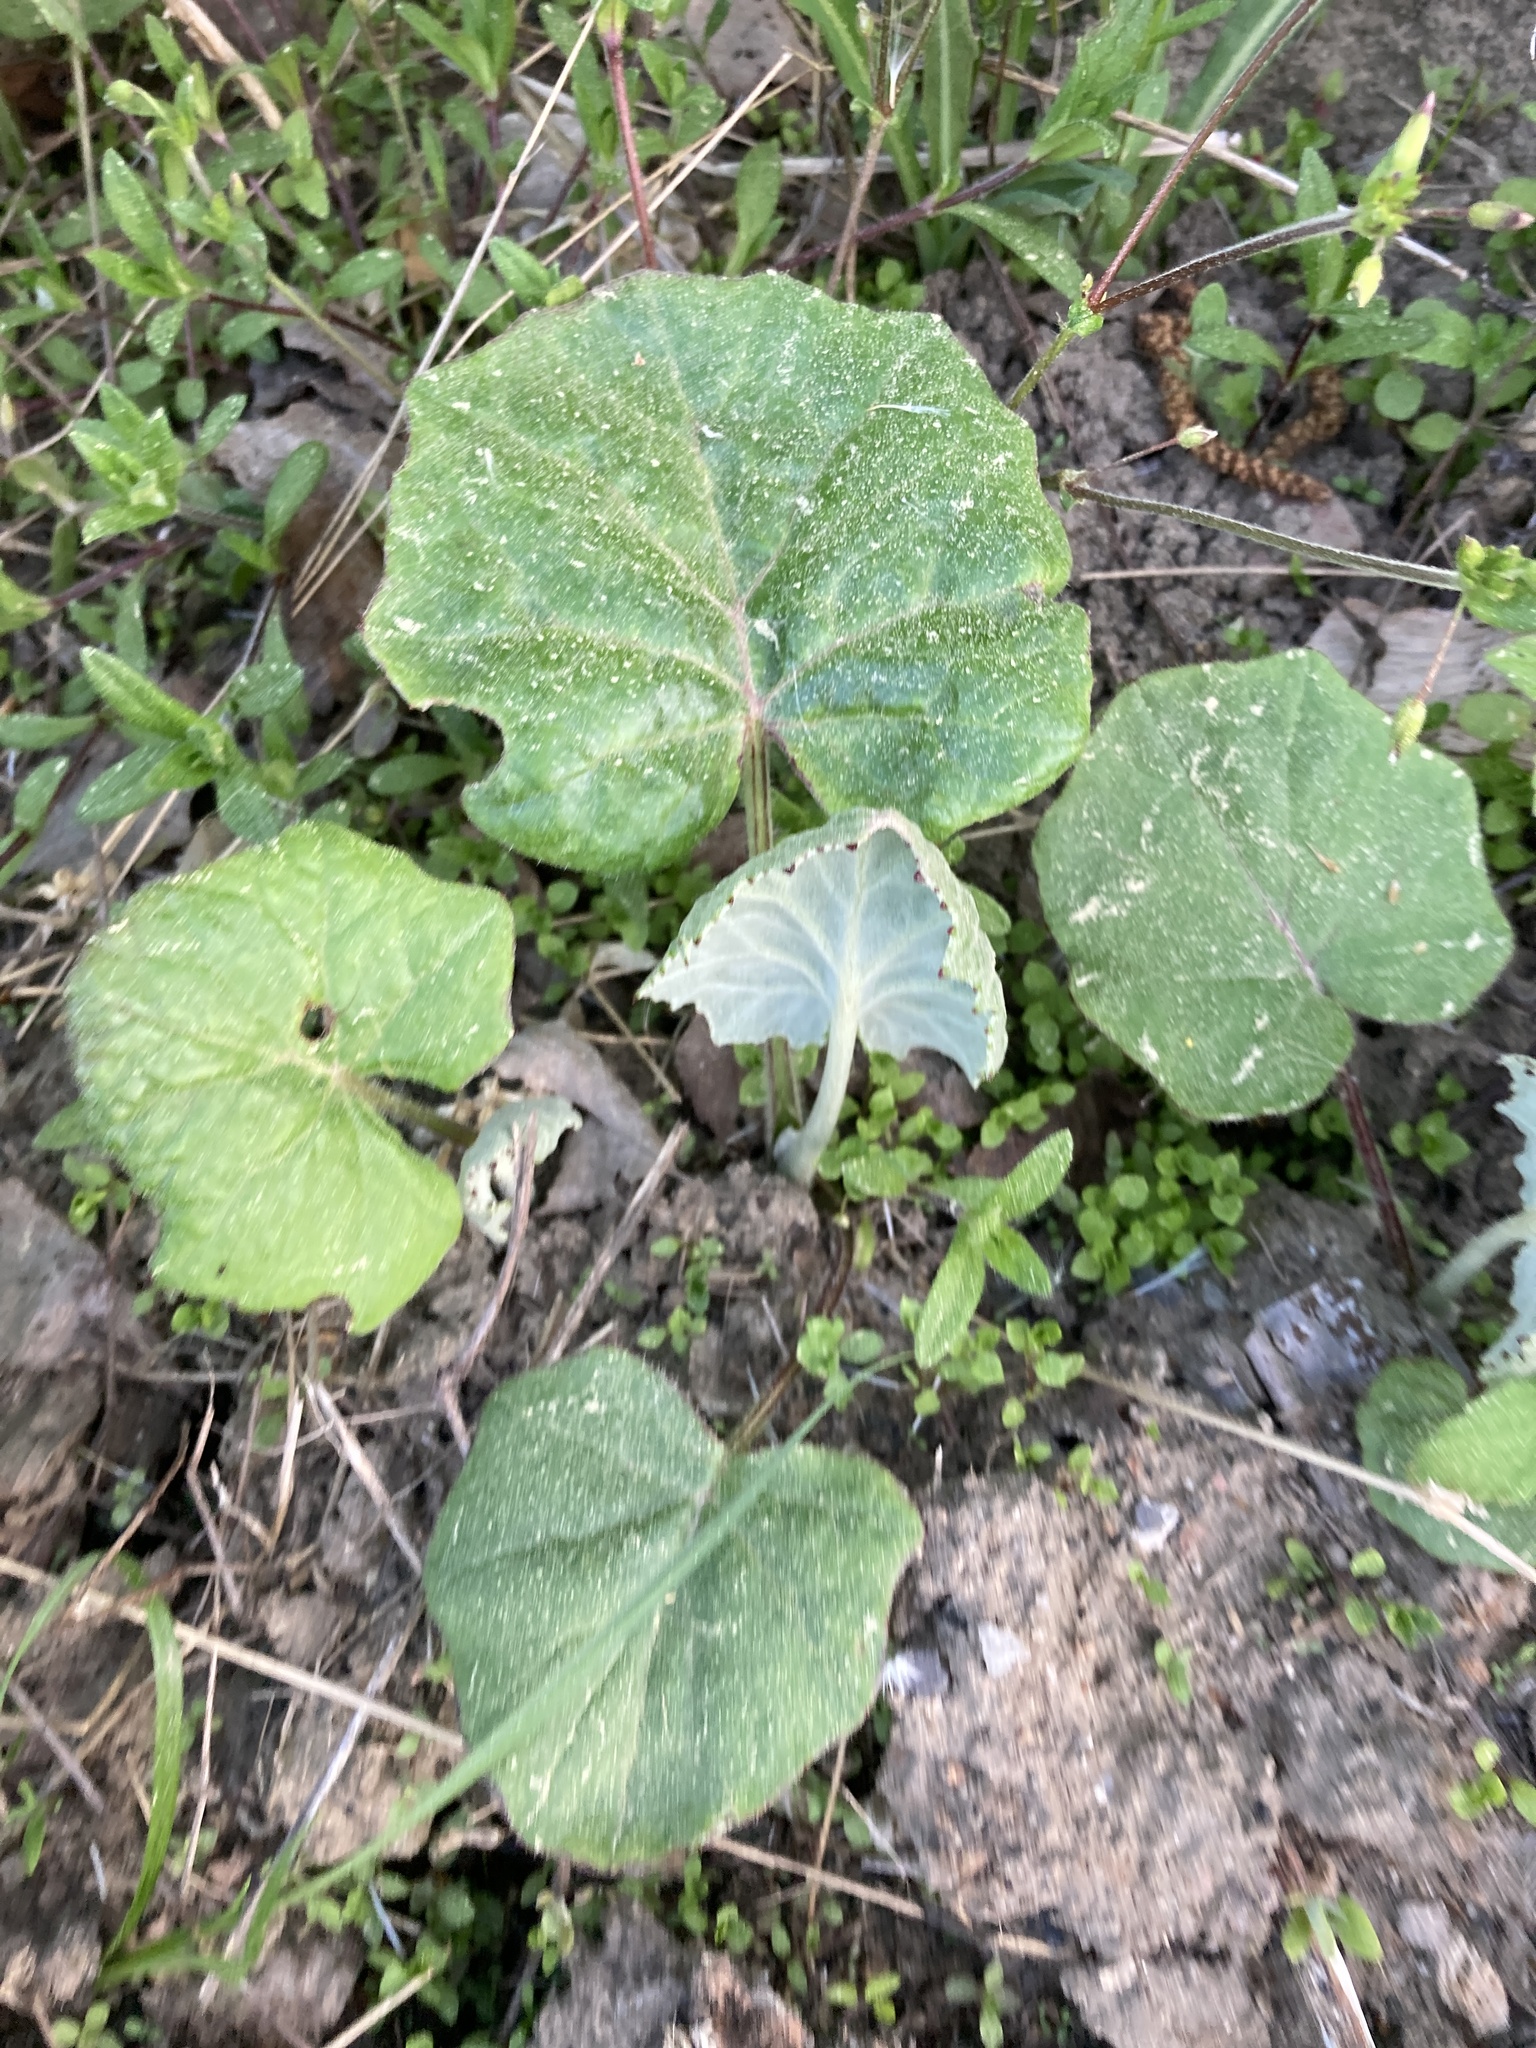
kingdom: Plantae
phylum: Tracheophyta
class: Magnoliopsida
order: Asterales
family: Asteraceae
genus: Tussilago
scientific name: Tussilago farfara
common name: Coltsfoot
